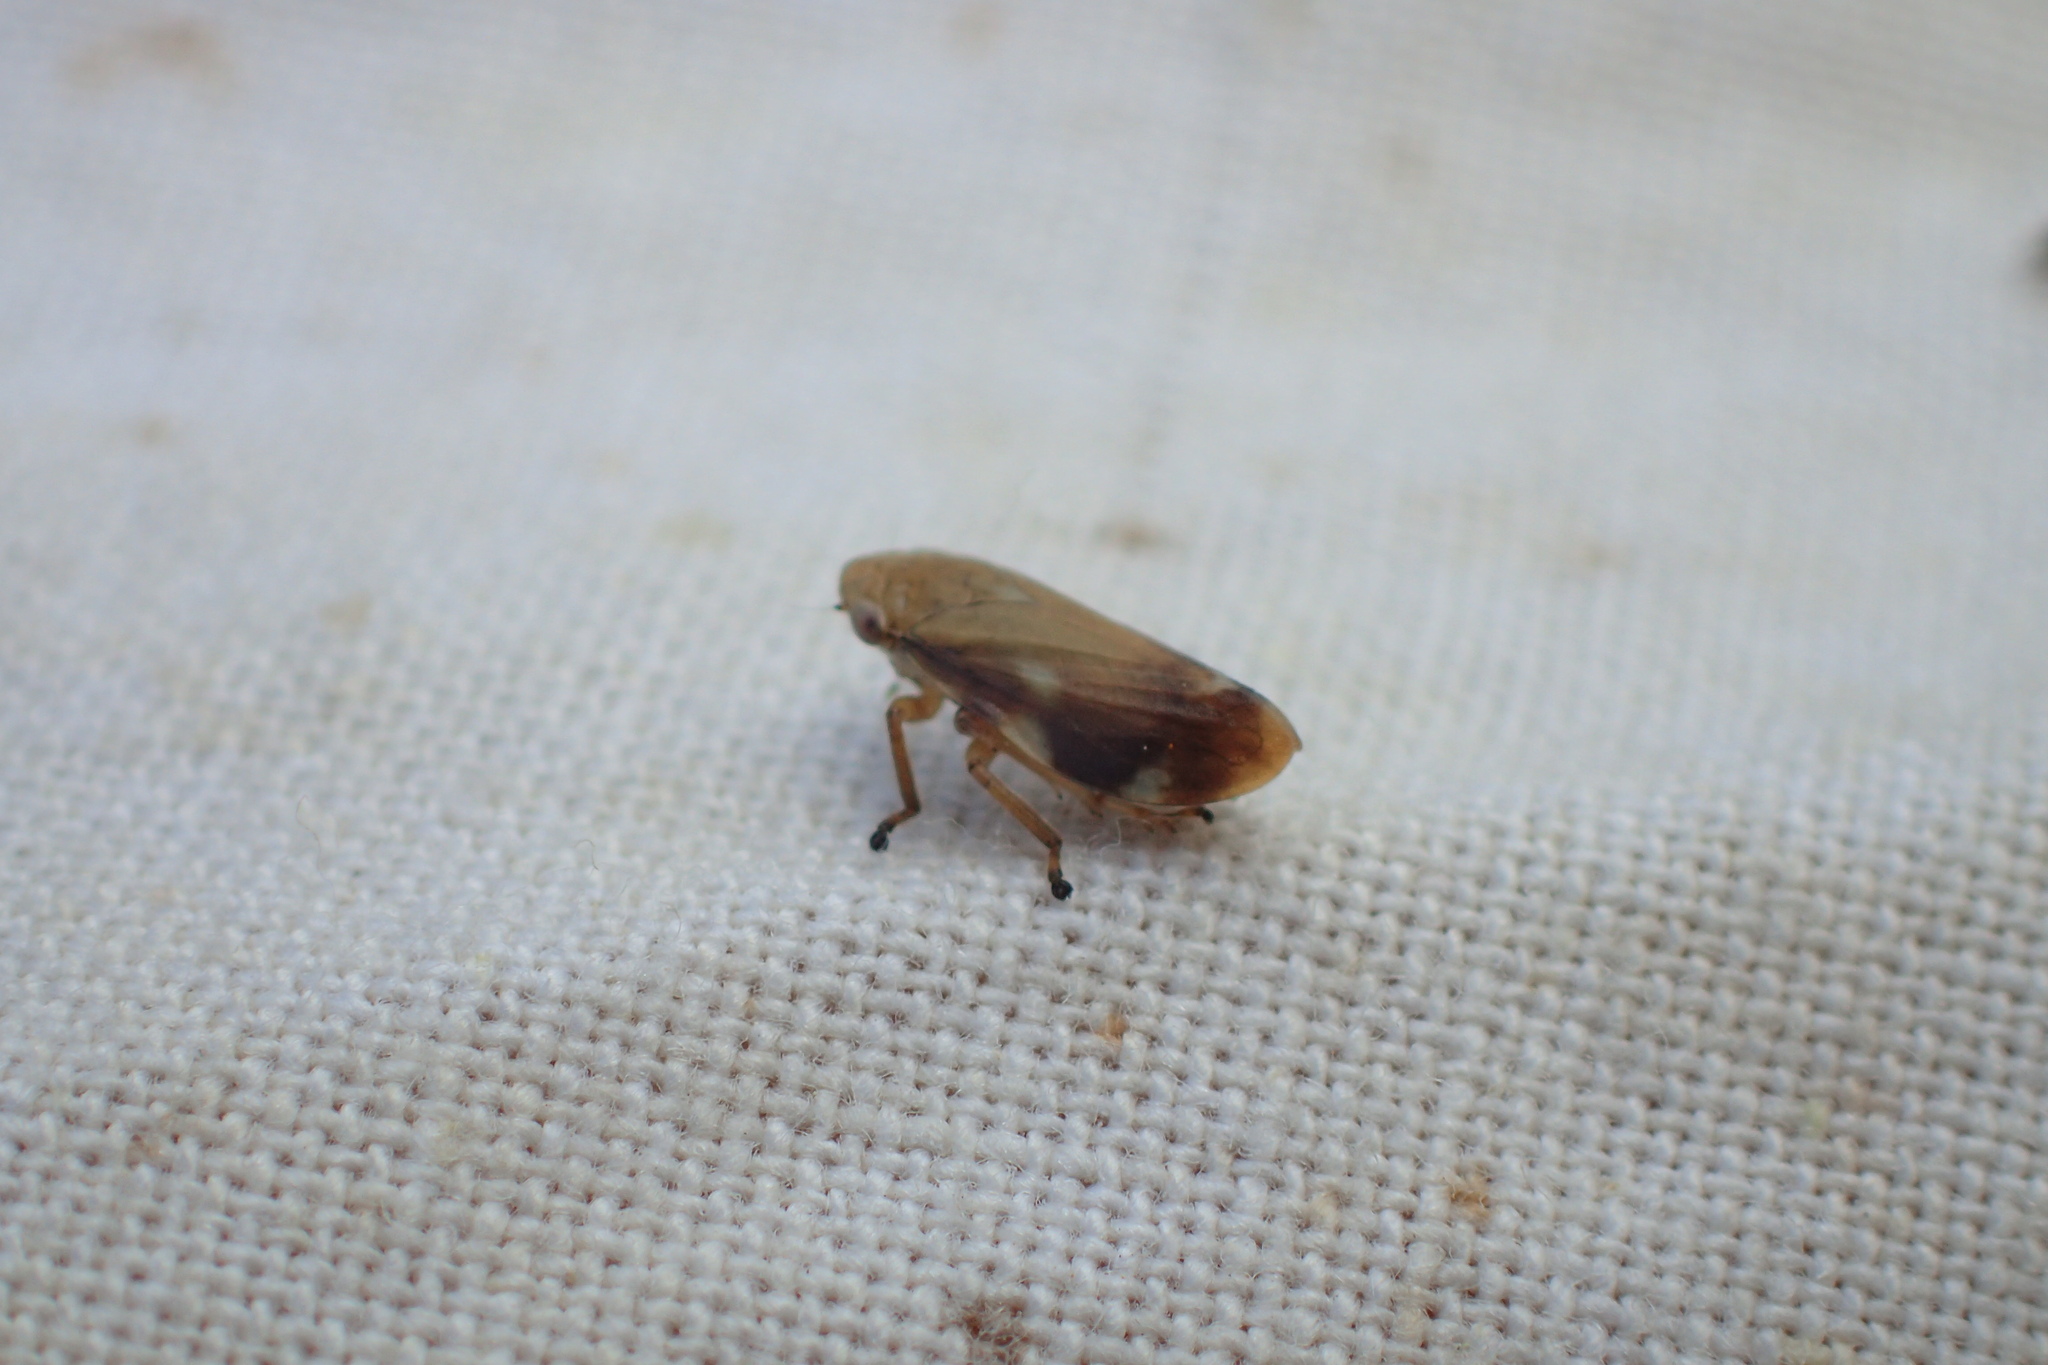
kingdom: Animalia
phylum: Arthropoda
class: Insecta
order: Hemiptera
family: Aphrophoridae
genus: Philaenus
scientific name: Philaenus spumarius
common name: Meadow spittlebug
